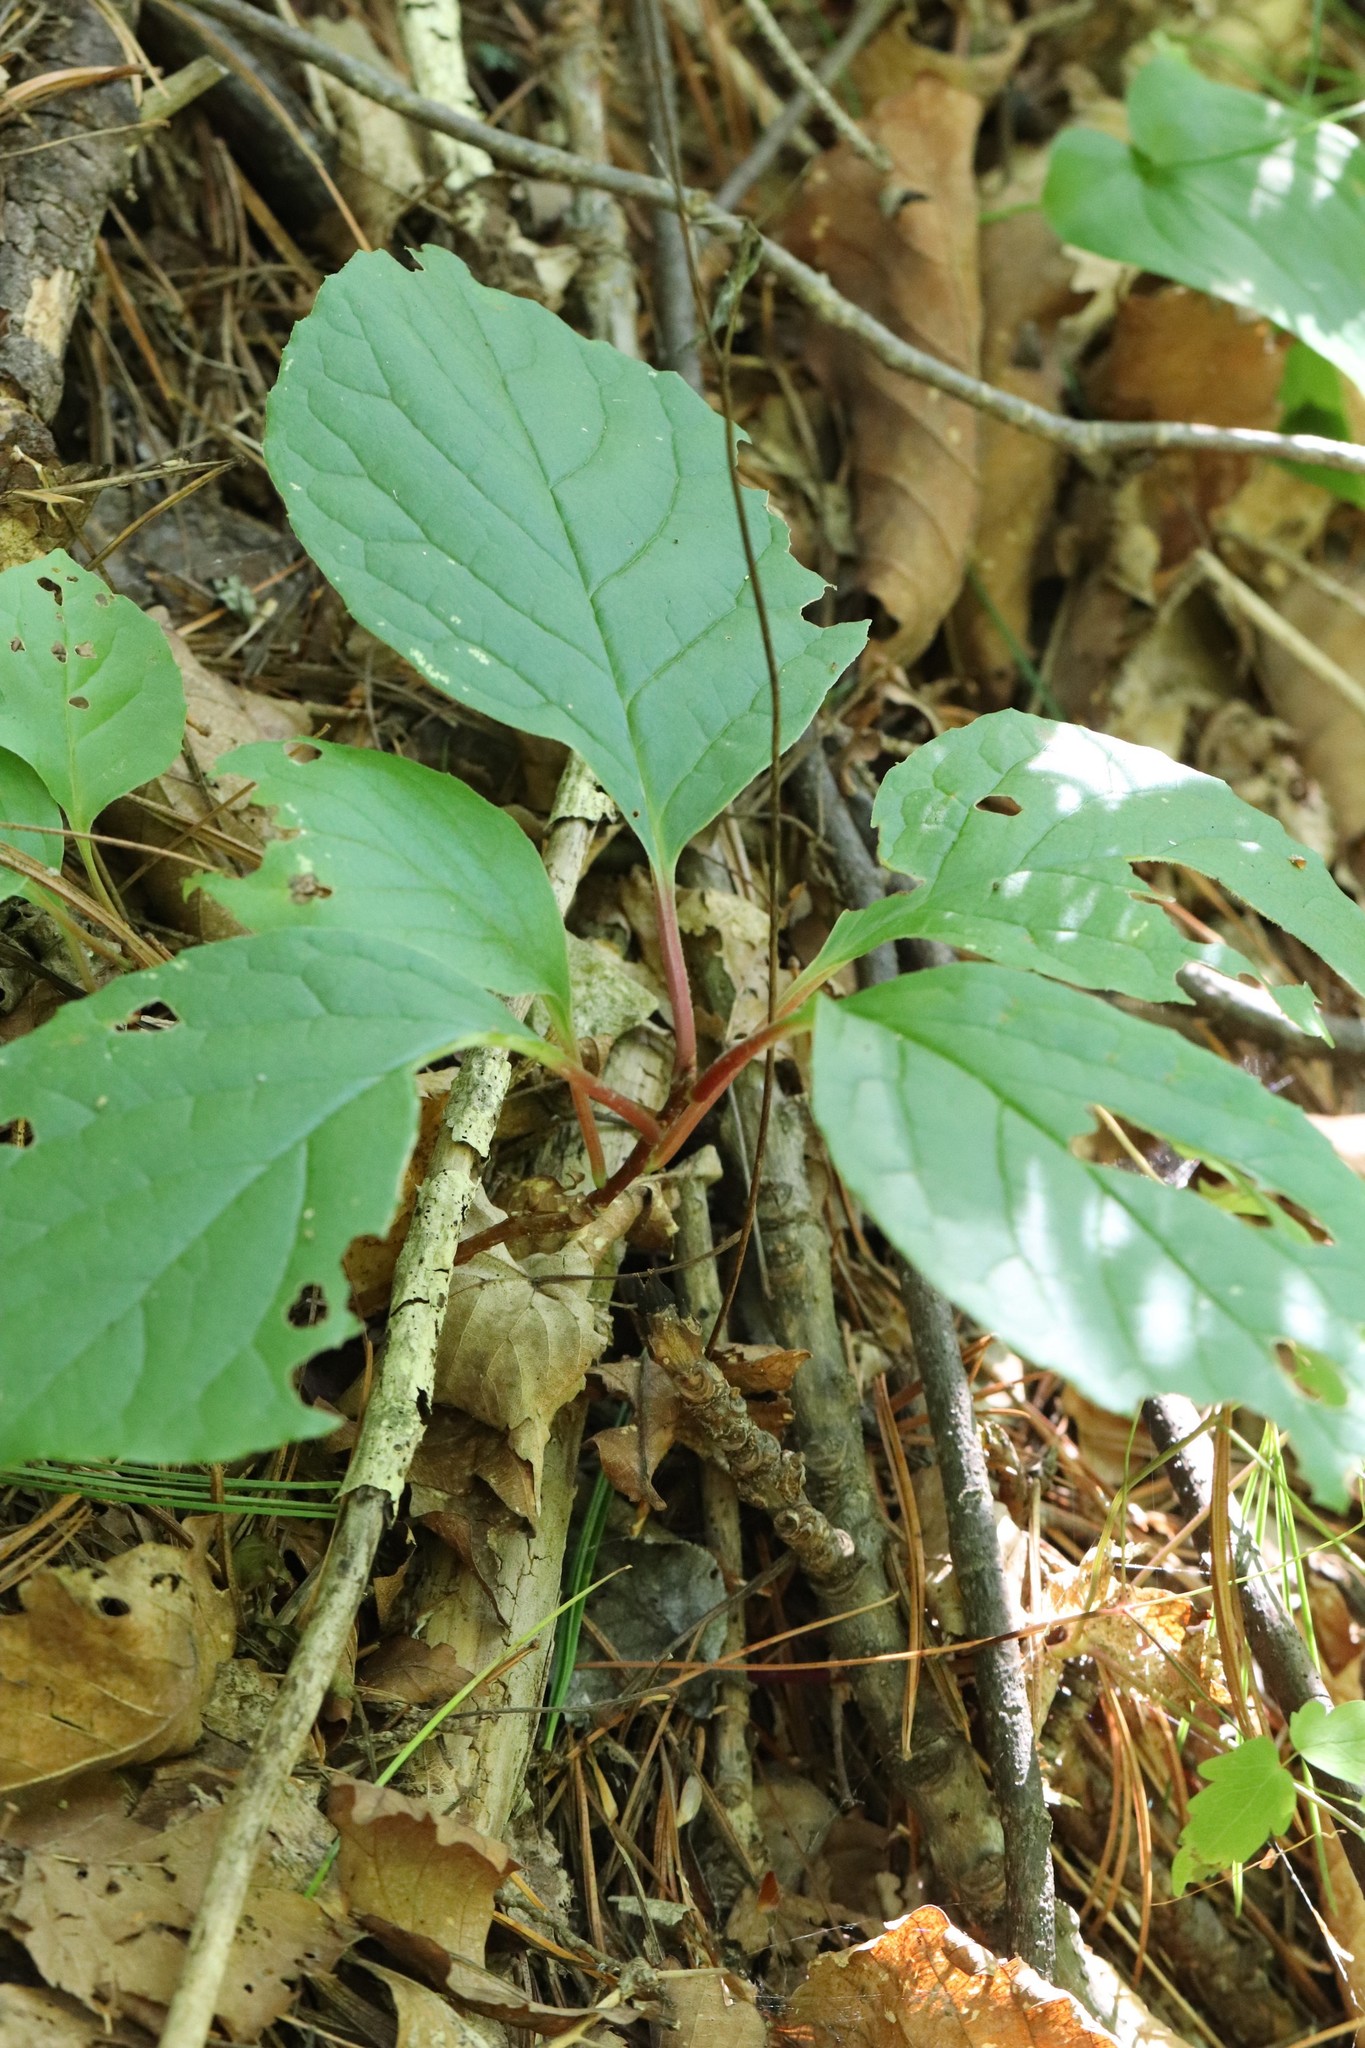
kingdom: Plantae
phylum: Tracheophyta
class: Magnoliopsida
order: Austrobaileyales
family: Schisandraceae
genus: Schisandra
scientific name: Schisandra chinensis
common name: Magnolia-vine
